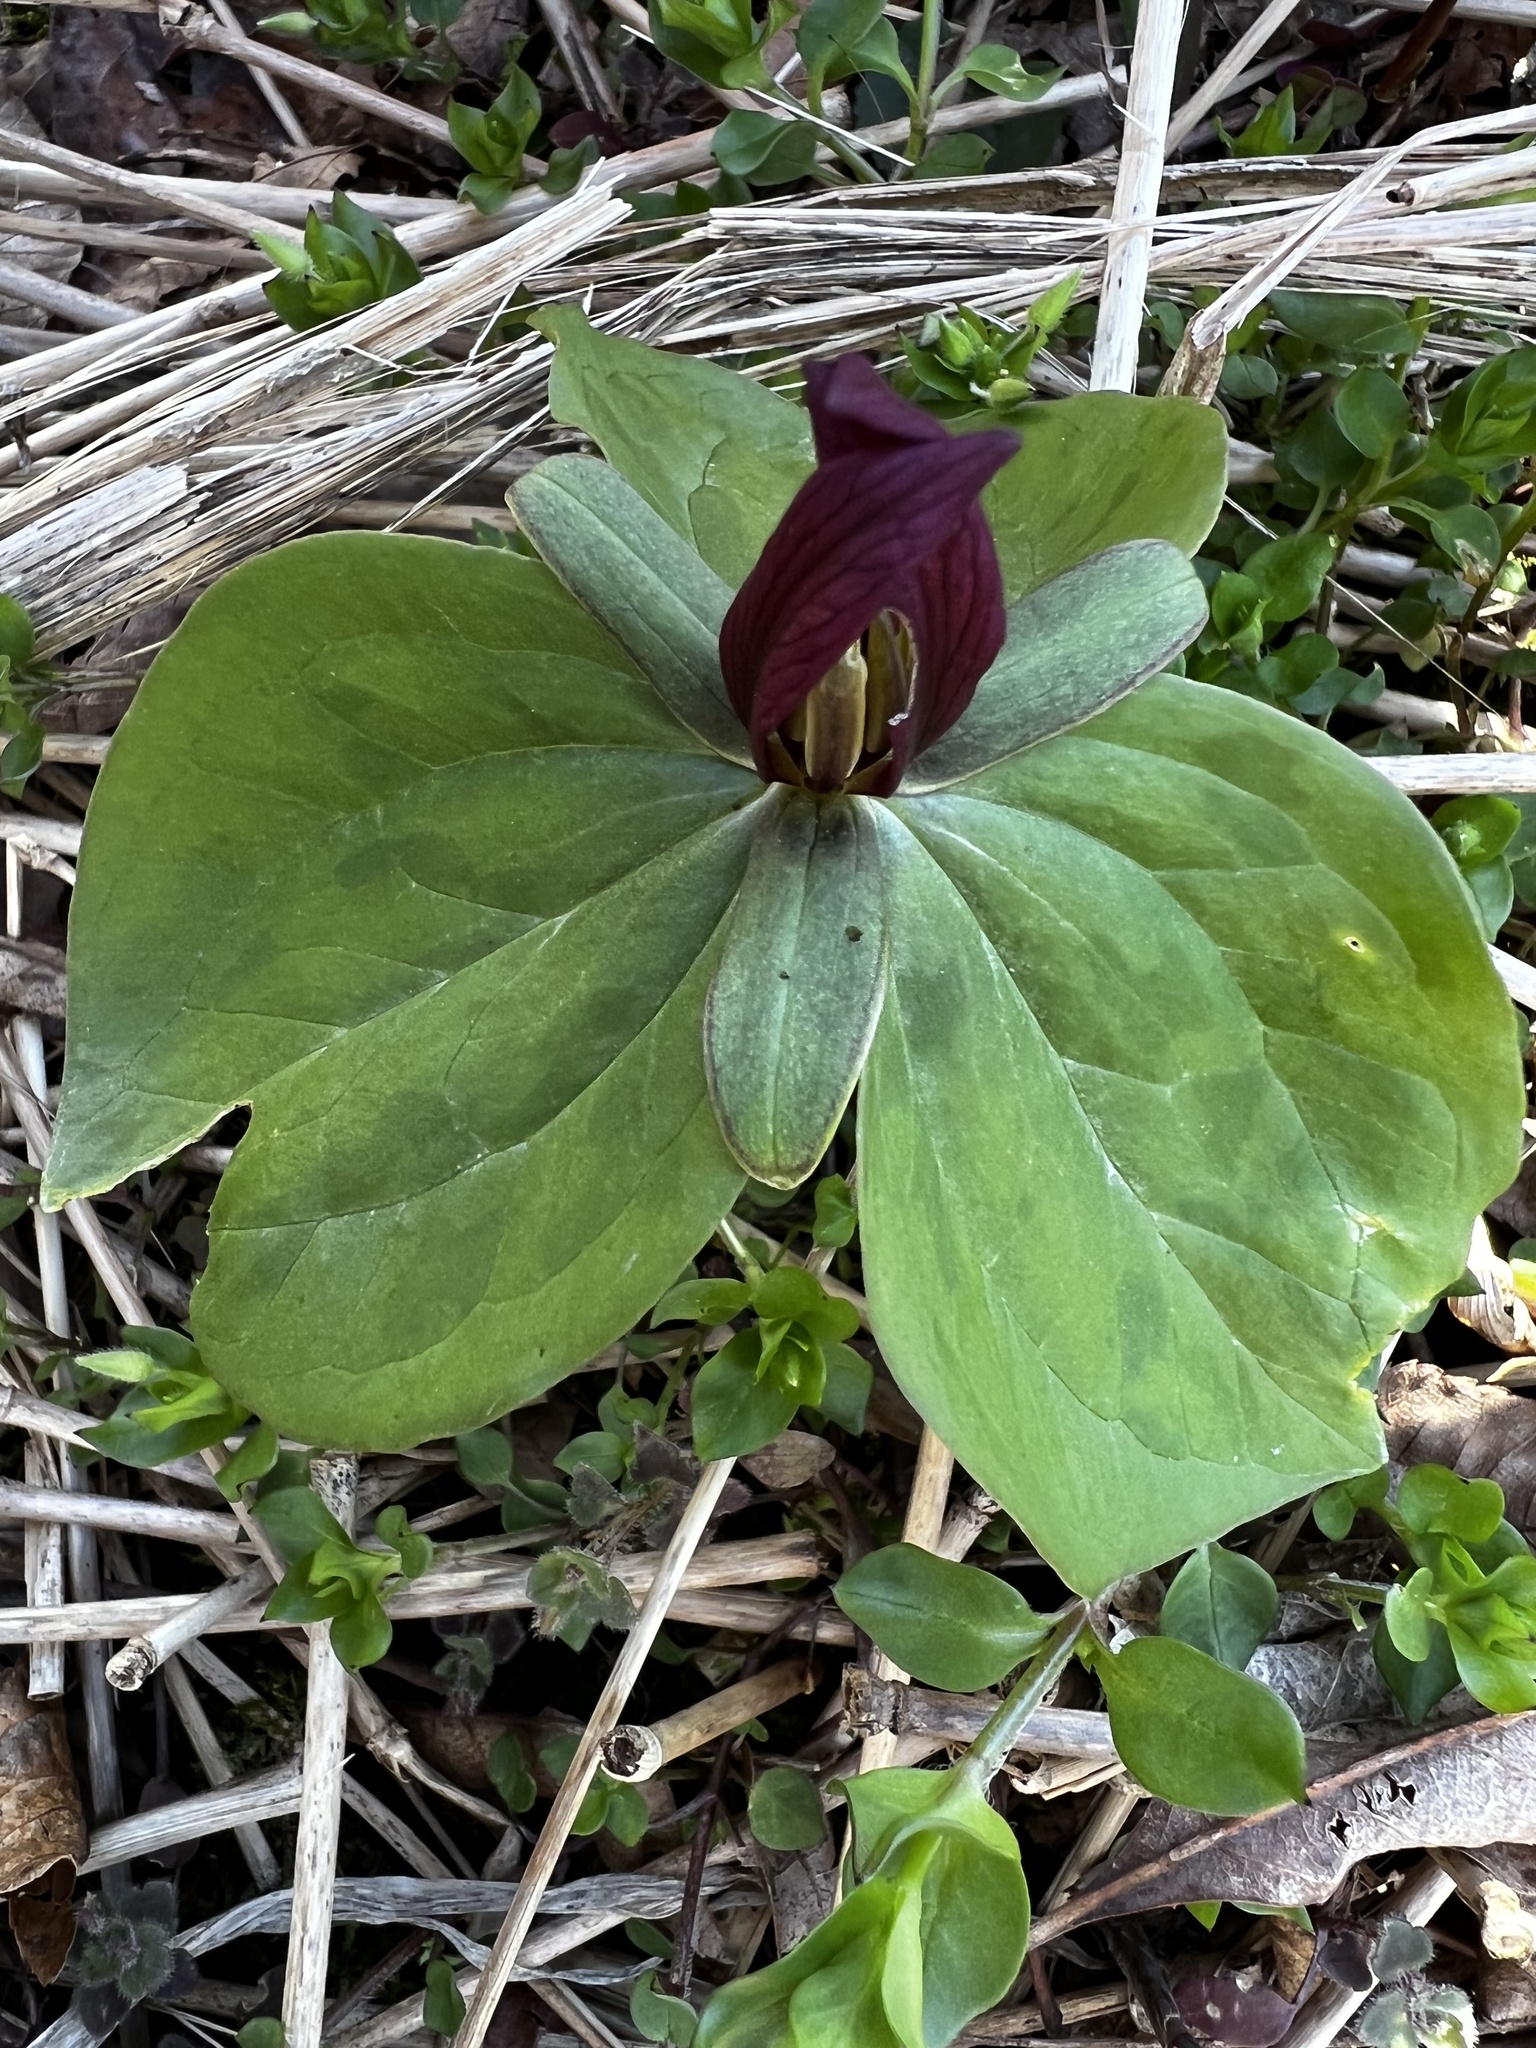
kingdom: Plantae
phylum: Tracheophyta
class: Liliopsida
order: Liliales
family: Melanthiaceae
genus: Trillium
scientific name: Trillium sessile
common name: Sessile trillium
